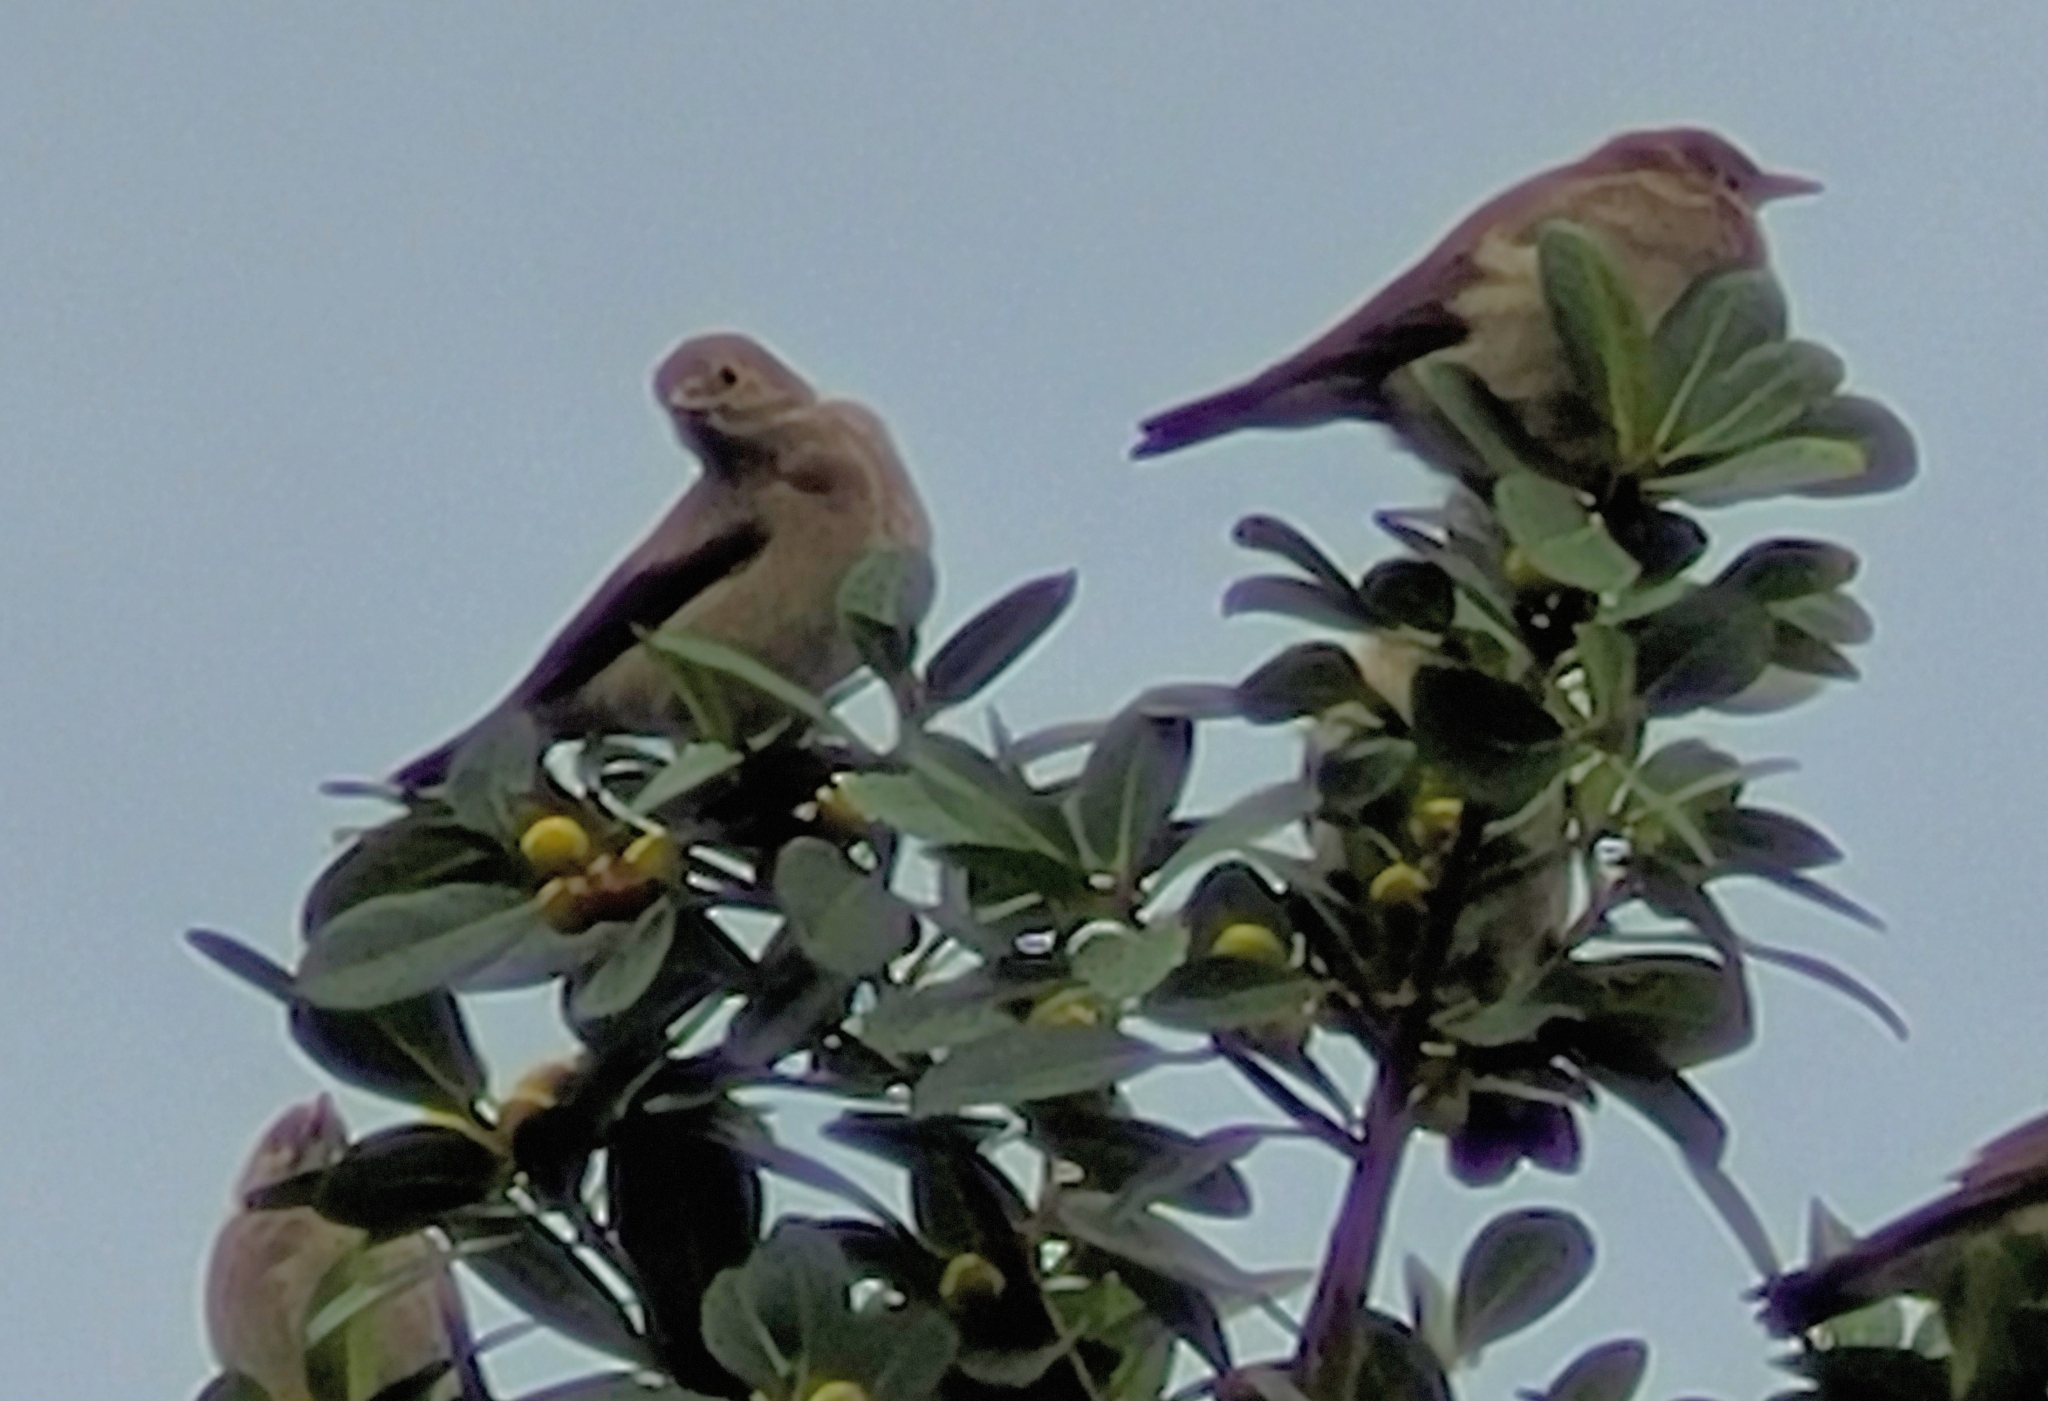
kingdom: Animalia
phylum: Chordata
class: Aves
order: Passeriformes
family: Sturnidae
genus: Creatophora
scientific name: Creatophora cinerea
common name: Wattled starling
